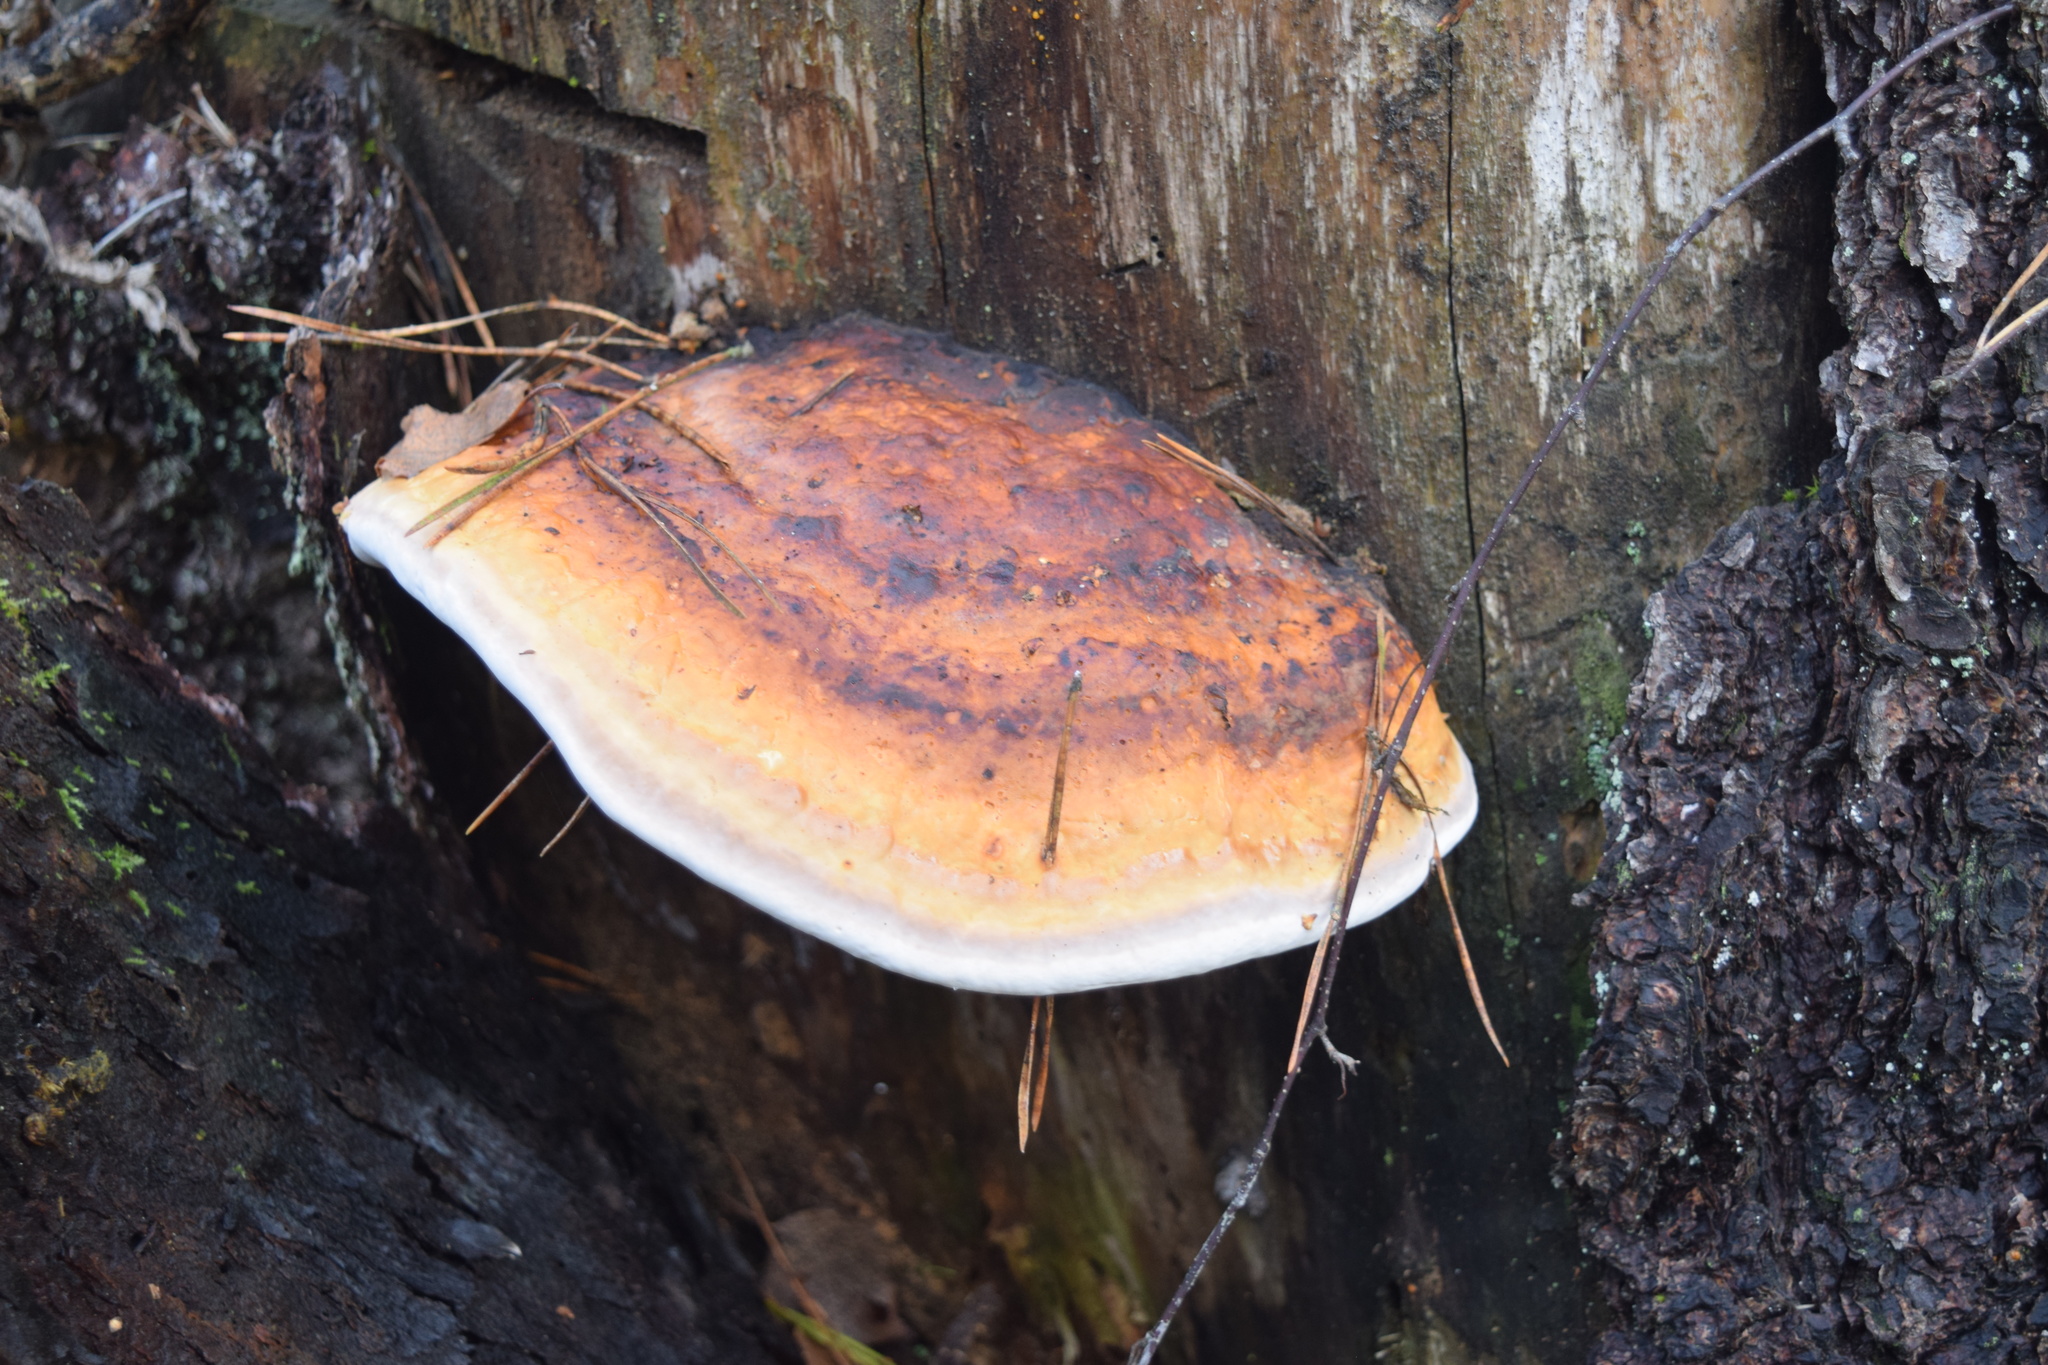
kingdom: Fungi
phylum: Basidiomycota
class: Agaricomycetes
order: Polyporales
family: Fomitopsidaceae
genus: Fomitopsis
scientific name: Fomitopsis pinicola
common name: Red-belted bracket
